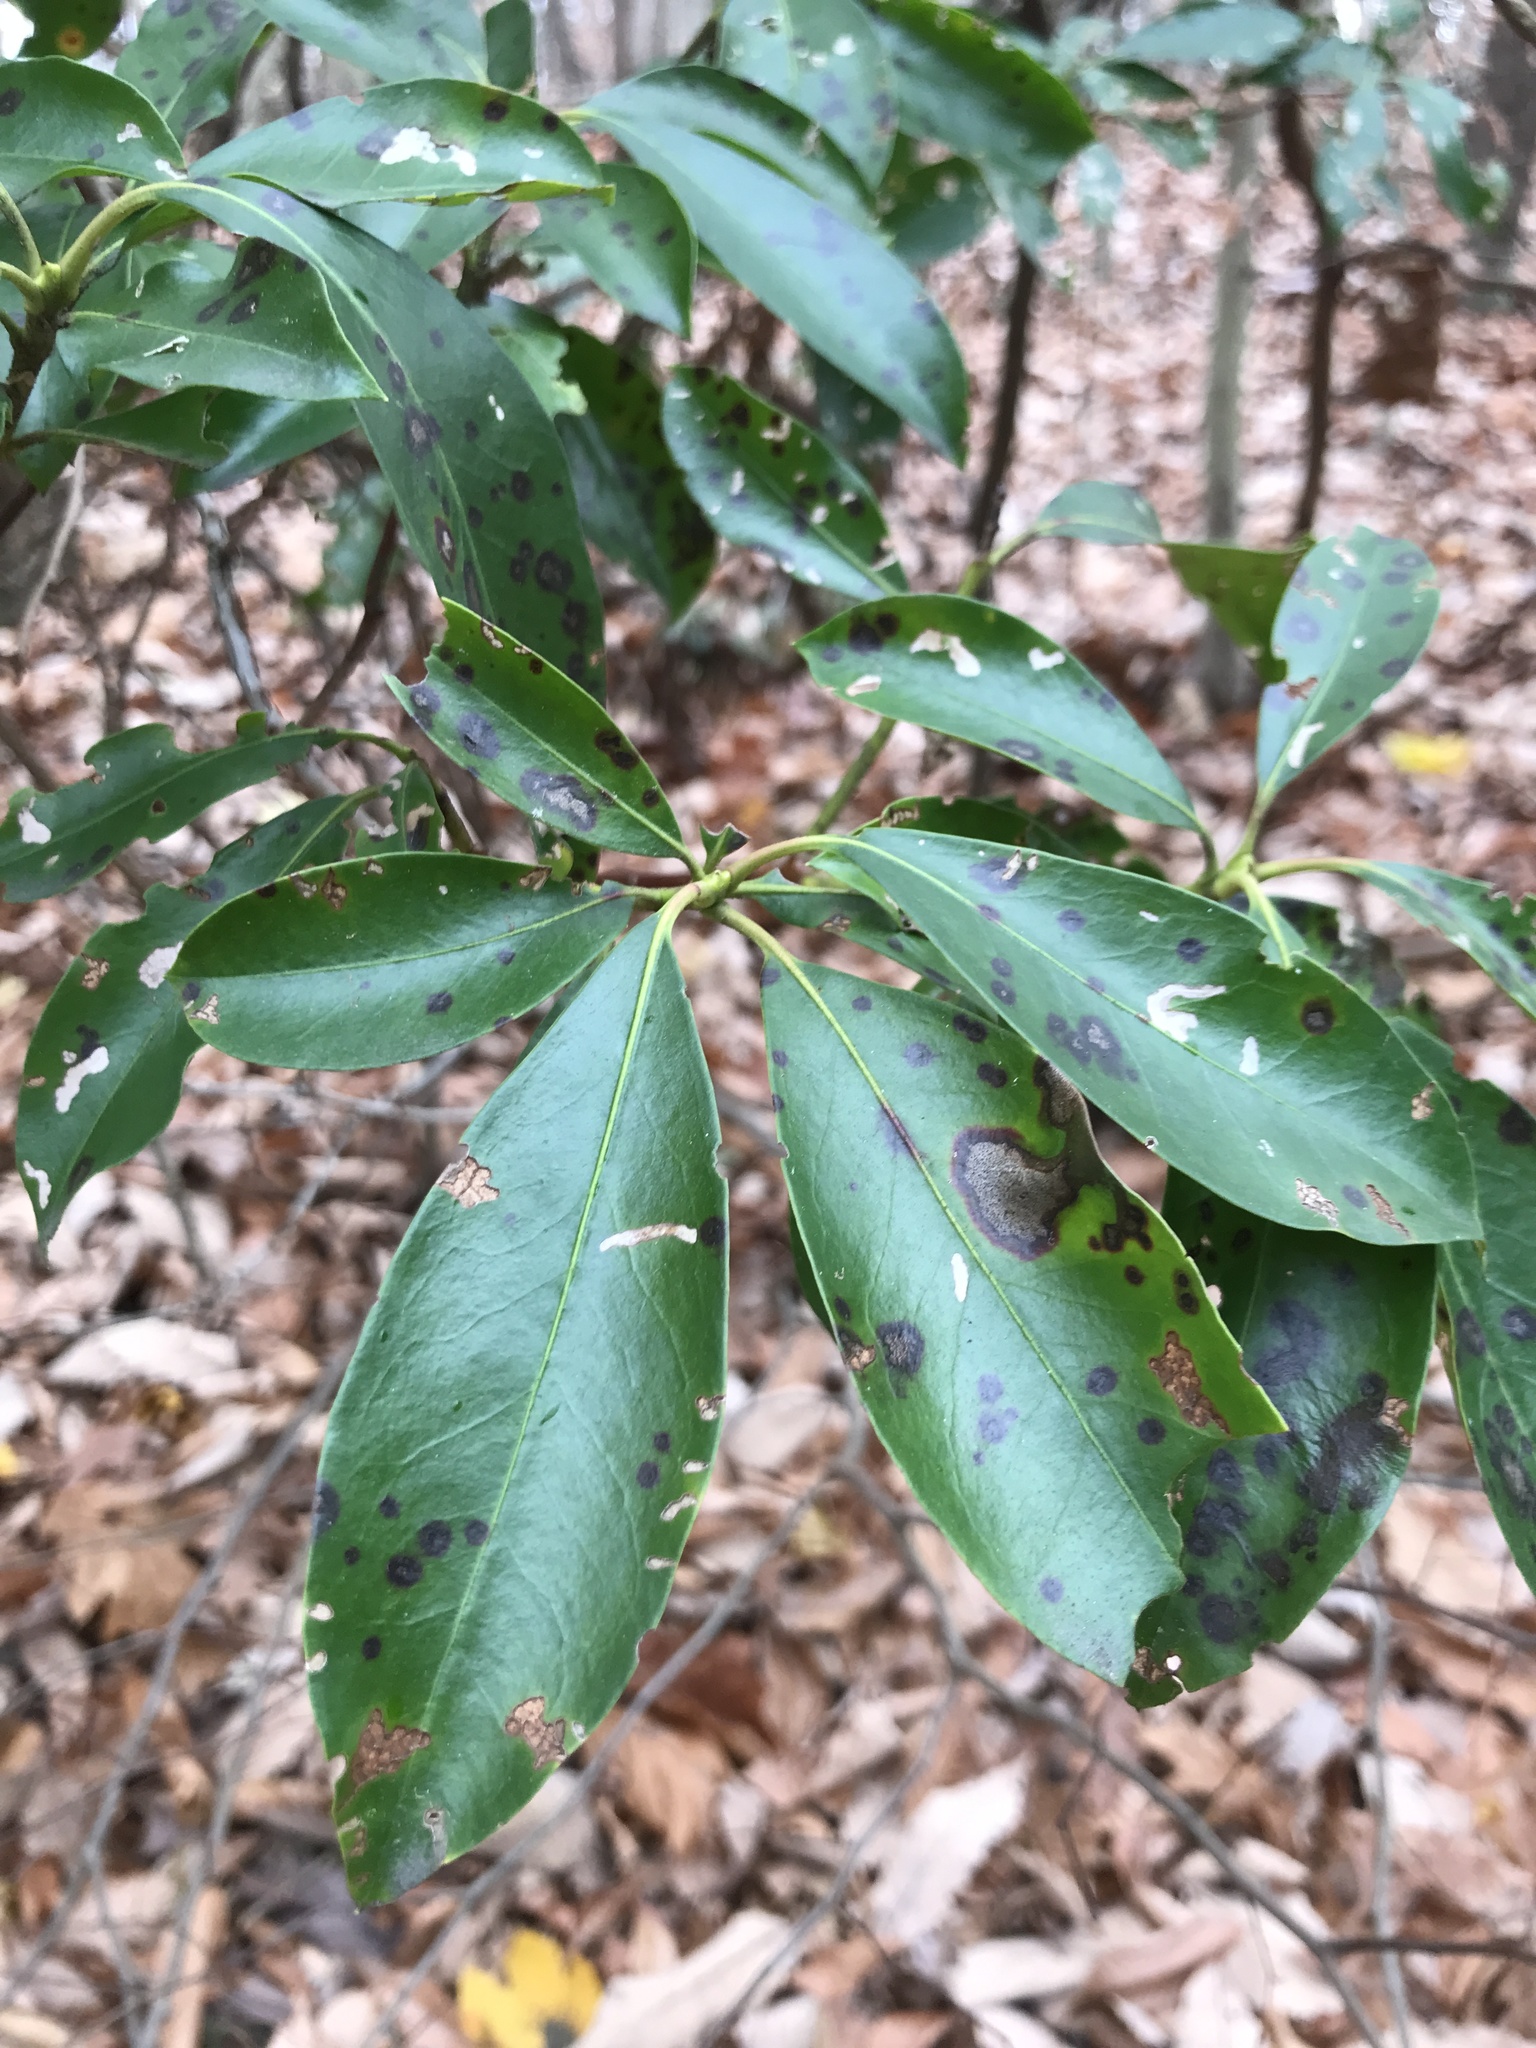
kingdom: Plantae
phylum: Tracheophyta
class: Magnoliopsida
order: Ericales
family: Ericaceae
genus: Kalmia
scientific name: Kalmia latifolia
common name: Mountain-laurel
